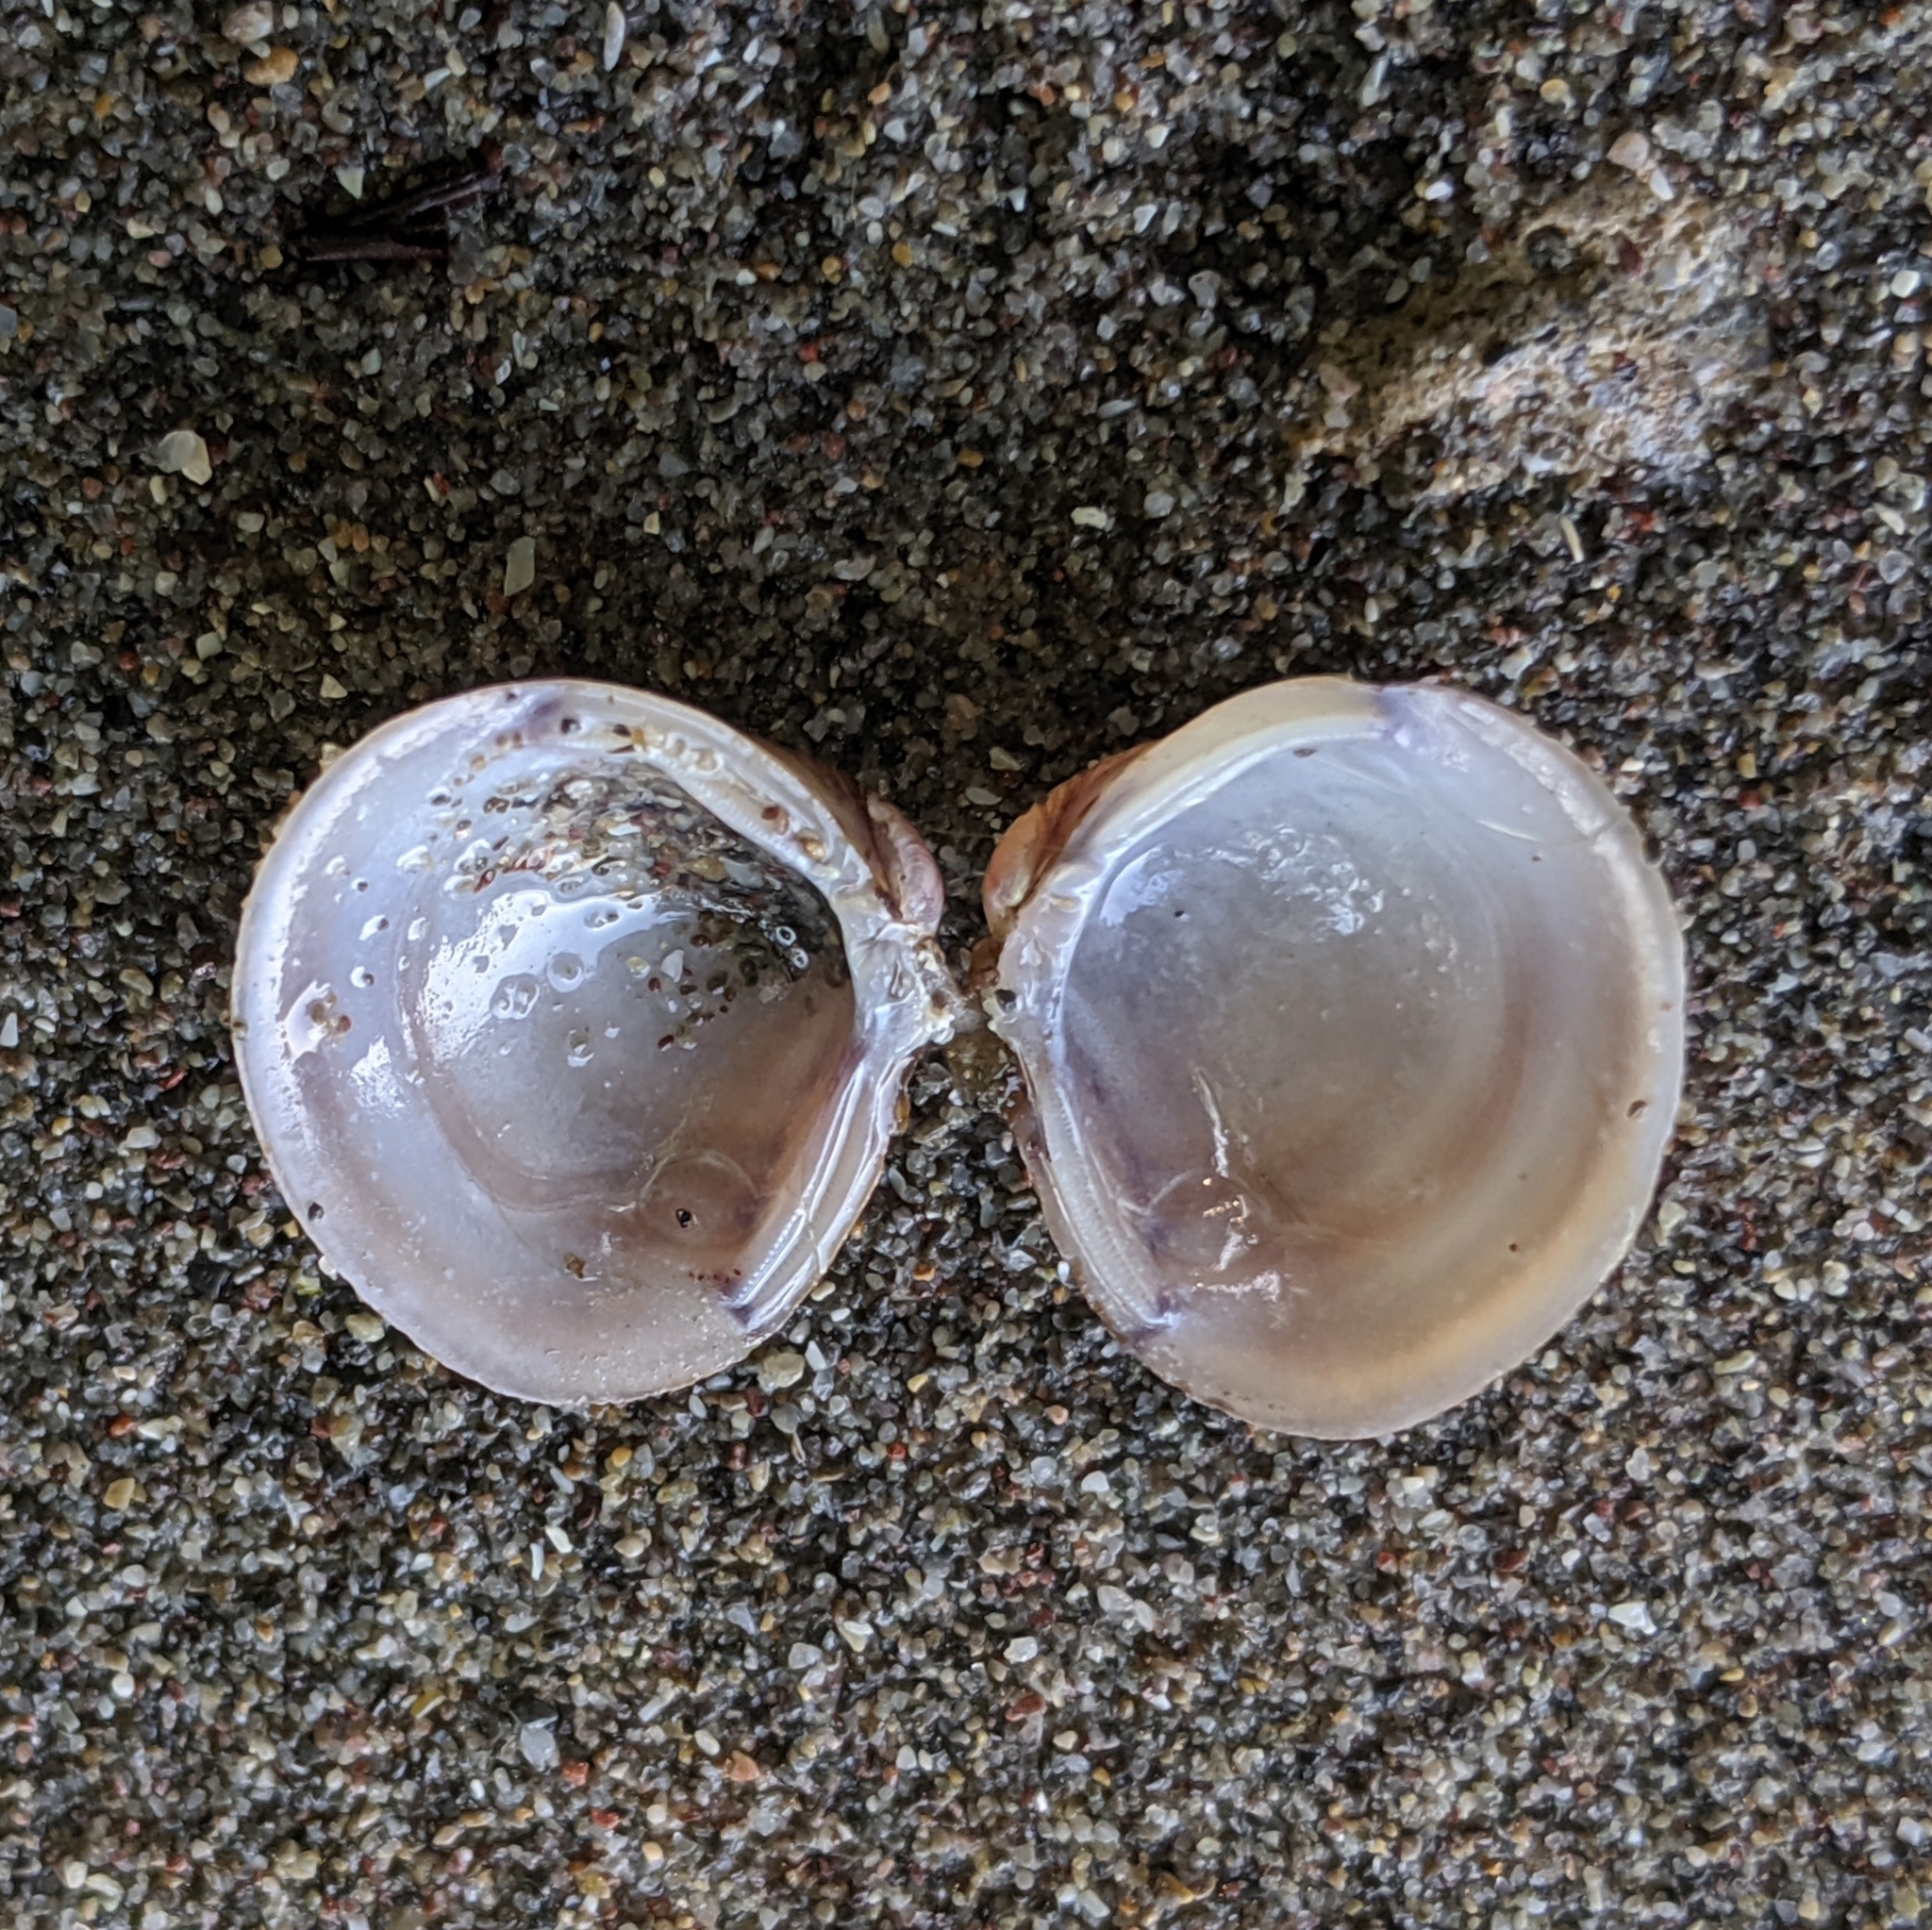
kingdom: Animalia
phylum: Mollusca
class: Bivalvia
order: Venerida
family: Cyrenidae
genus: Corbicula
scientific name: Corbicula fluminea
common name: Asian clam
